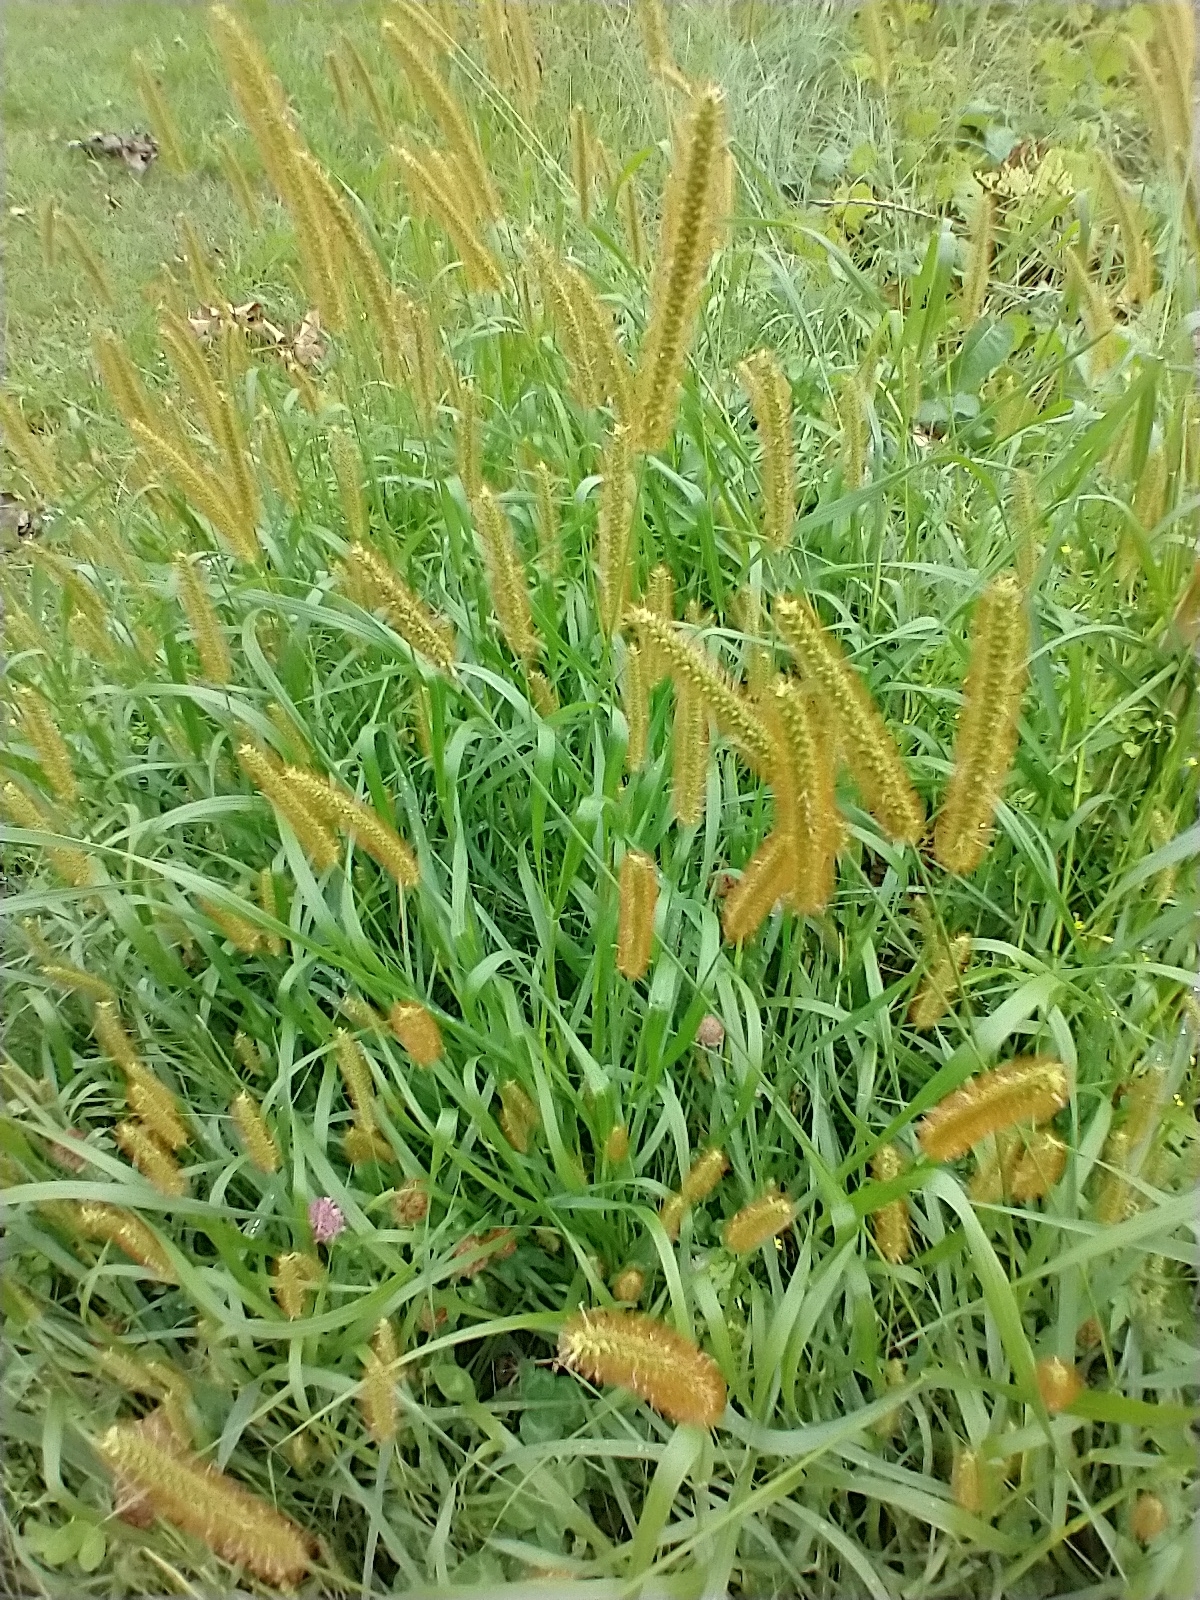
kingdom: Plantae
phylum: Tracheophyta
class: Liliopsida
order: Poales
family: Poaceae
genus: Setaria
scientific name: Setaria pumila
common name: Yellow bristle-grass
